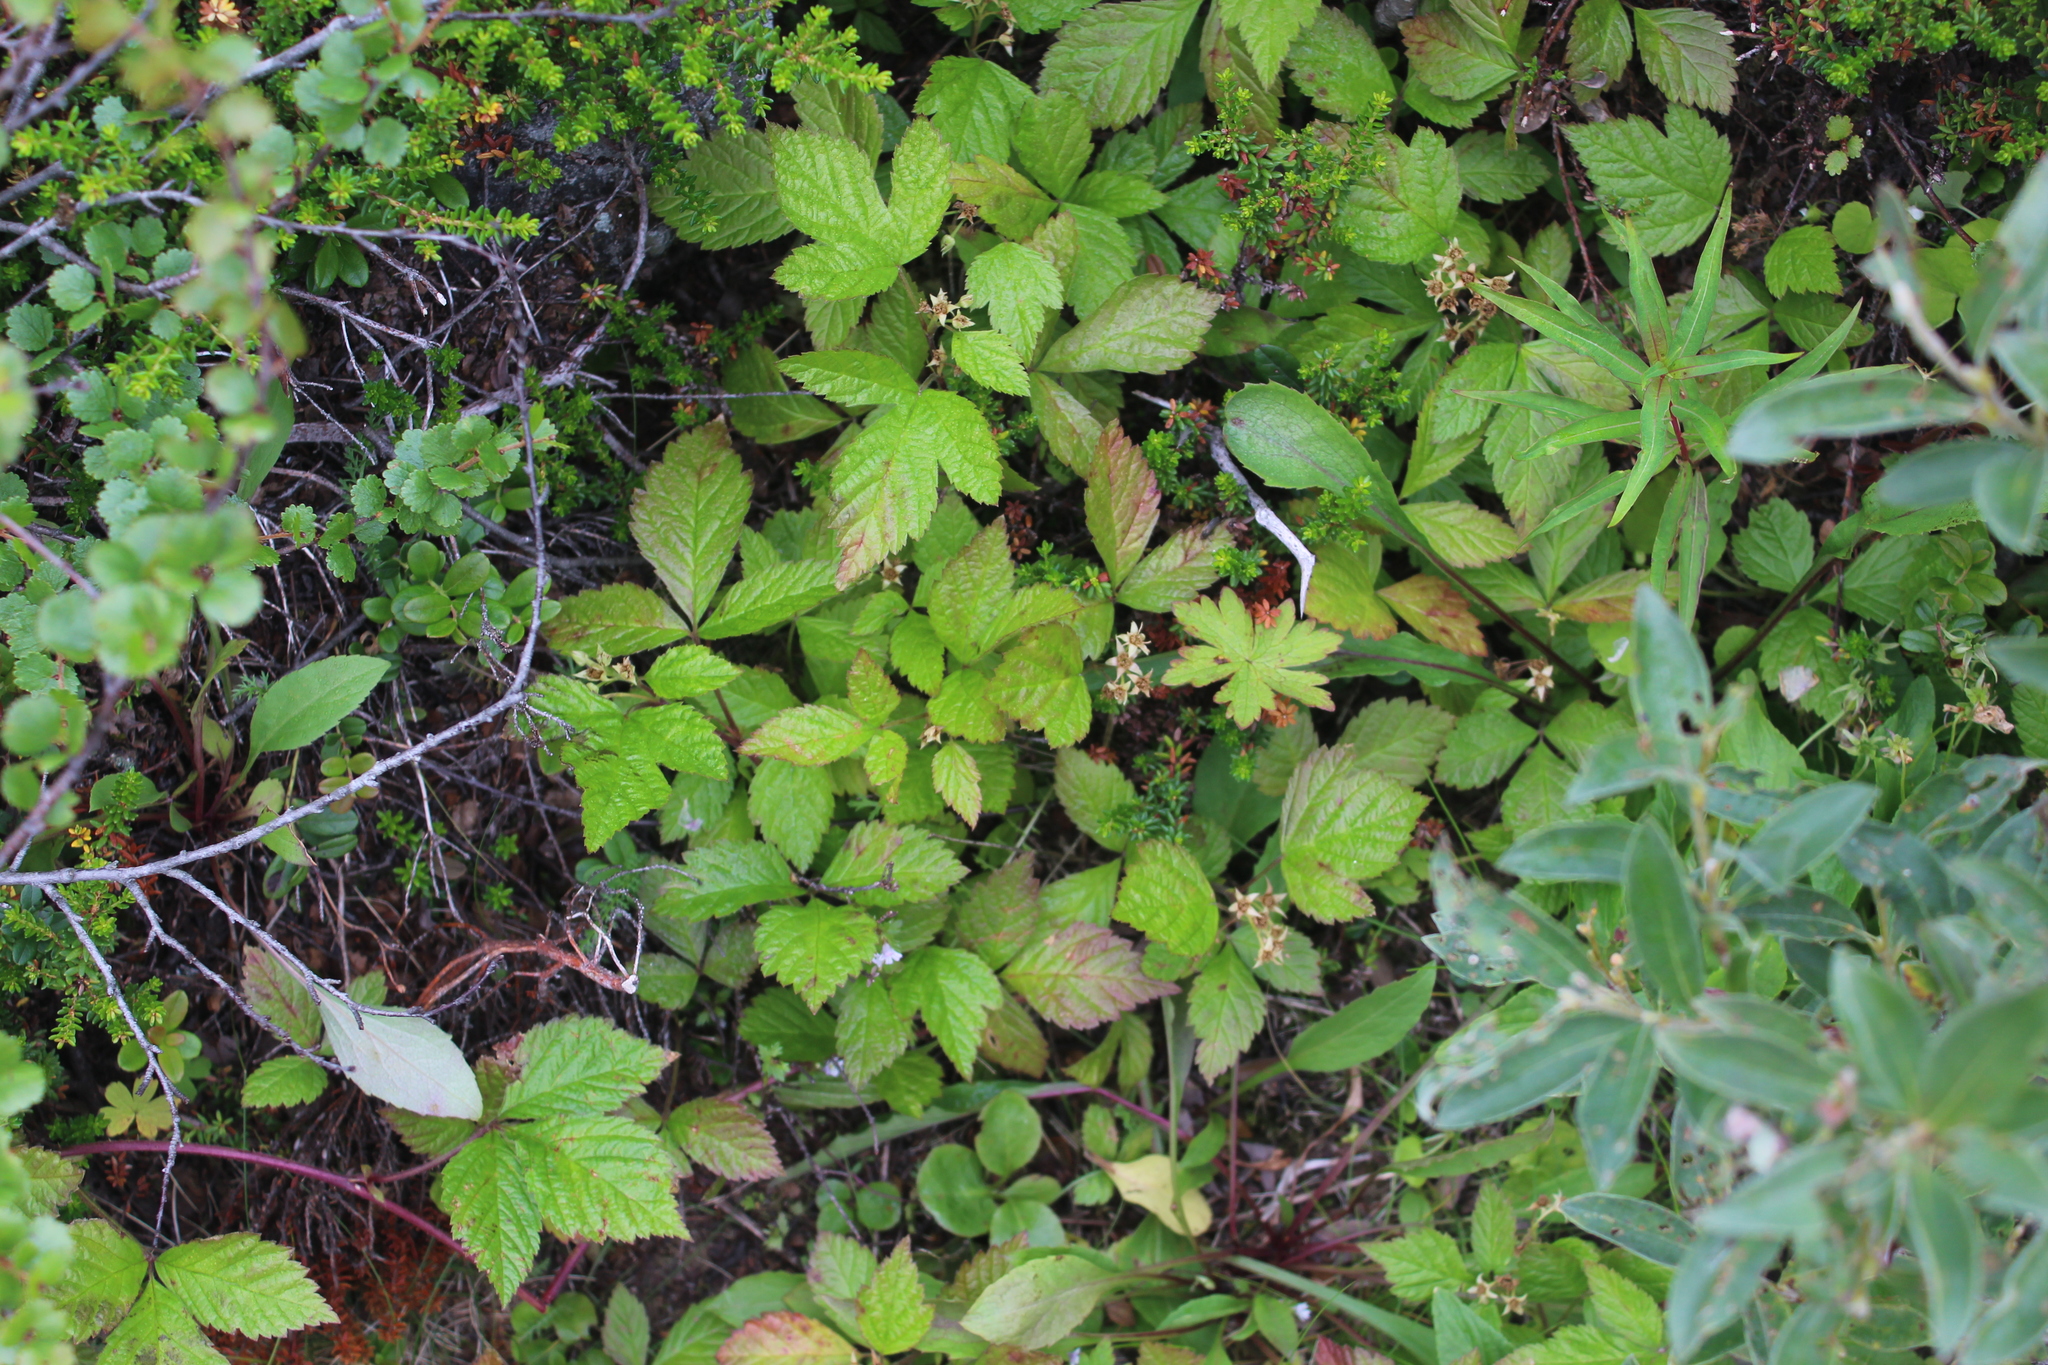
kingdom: Plantae
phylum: Tracheophyta
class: Magnoliopsida
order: Rosales
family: Rosaceae
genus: Rubus
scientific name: Rubus saxatilis
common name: Stone bramble
